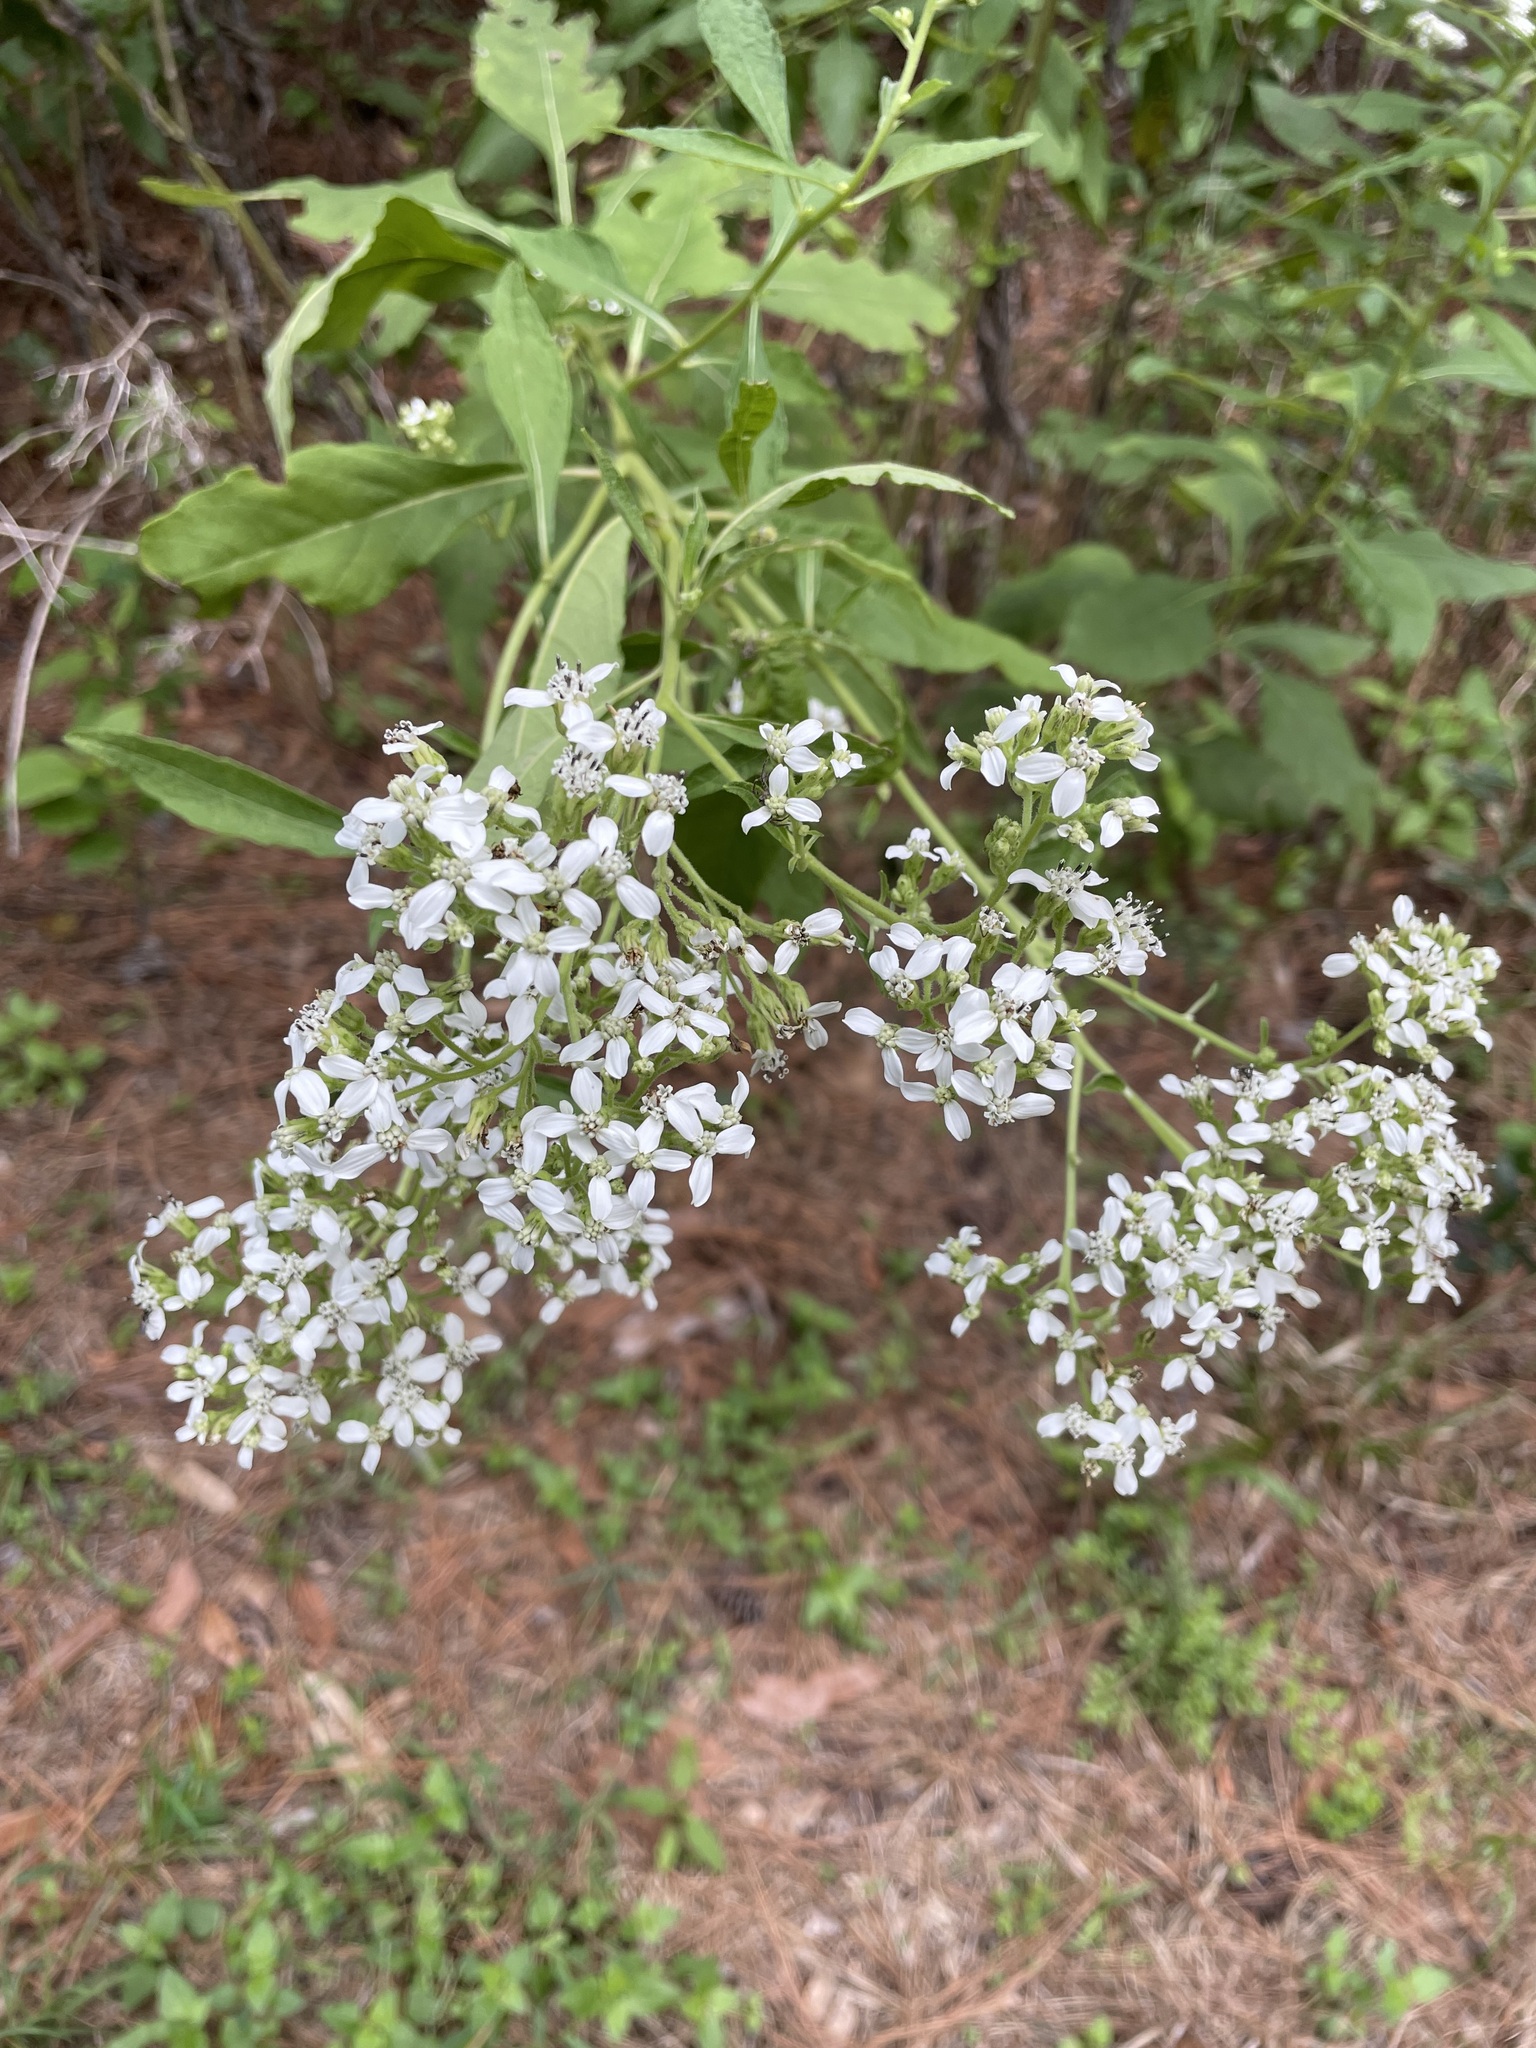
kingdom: Plantae
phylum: Tracheophyta
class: Magnoliopsida
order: Asterales
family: Asteraceae
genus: Verbesina
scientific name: Verbesina virginica
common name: Frostweed
